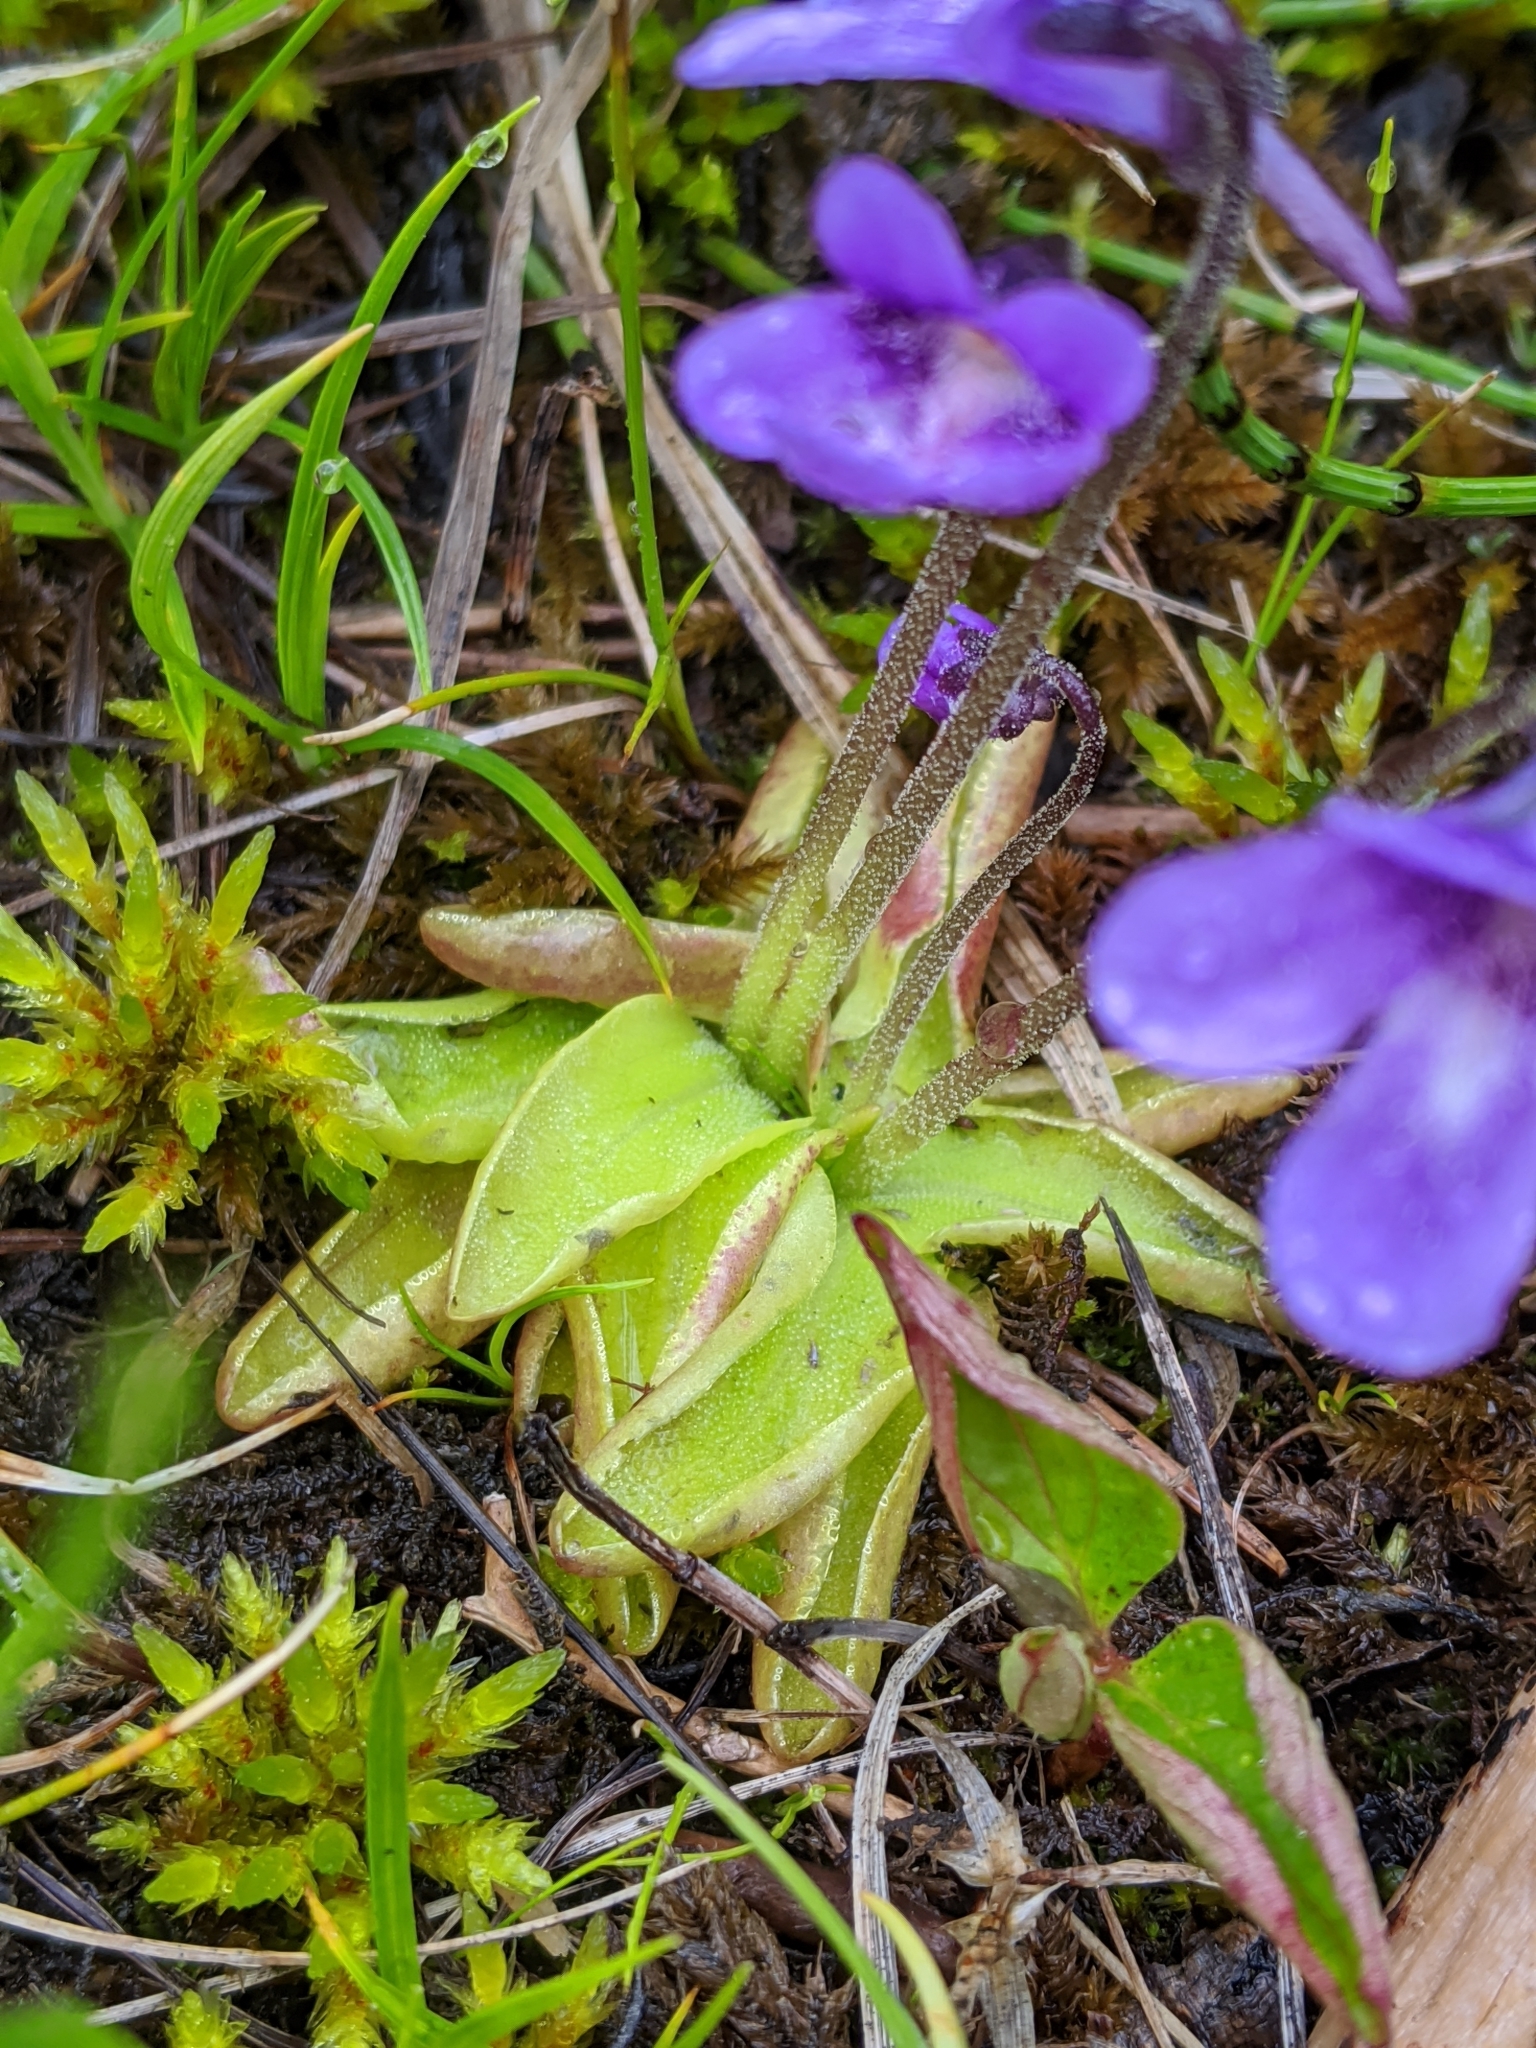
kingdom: Plantae
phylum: Tracheophyta
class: Magnoliopsida
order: Lamiales
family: Lentibulariaceae
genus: Pinguicula
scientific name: Pinguicula vulgaris
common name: Common butterwort
